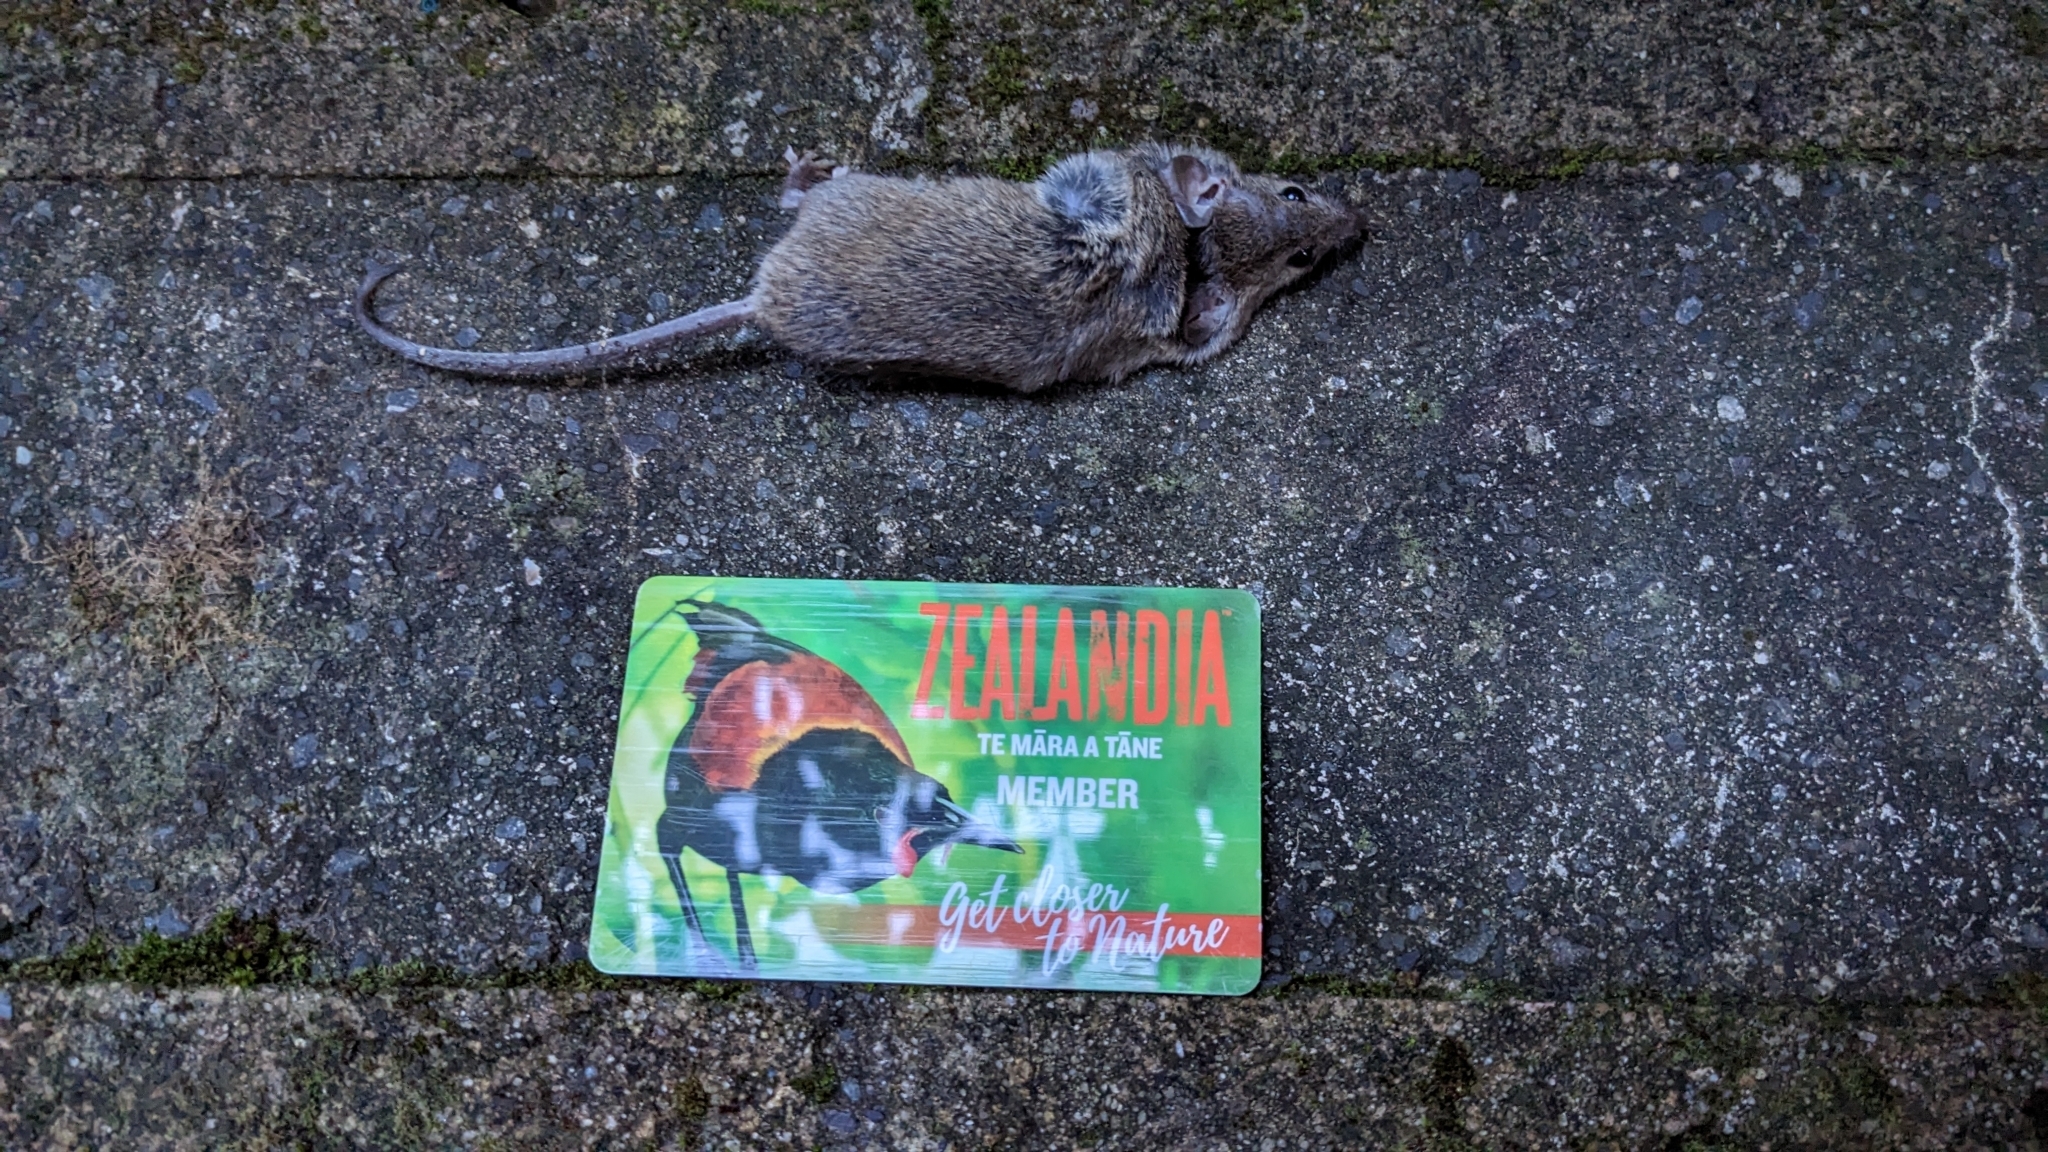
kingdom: Animalia
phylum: Chordata
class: Mammalia
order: Rodentia
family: Muridae
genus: Mus
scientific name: Mus musculus
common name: House mouse
